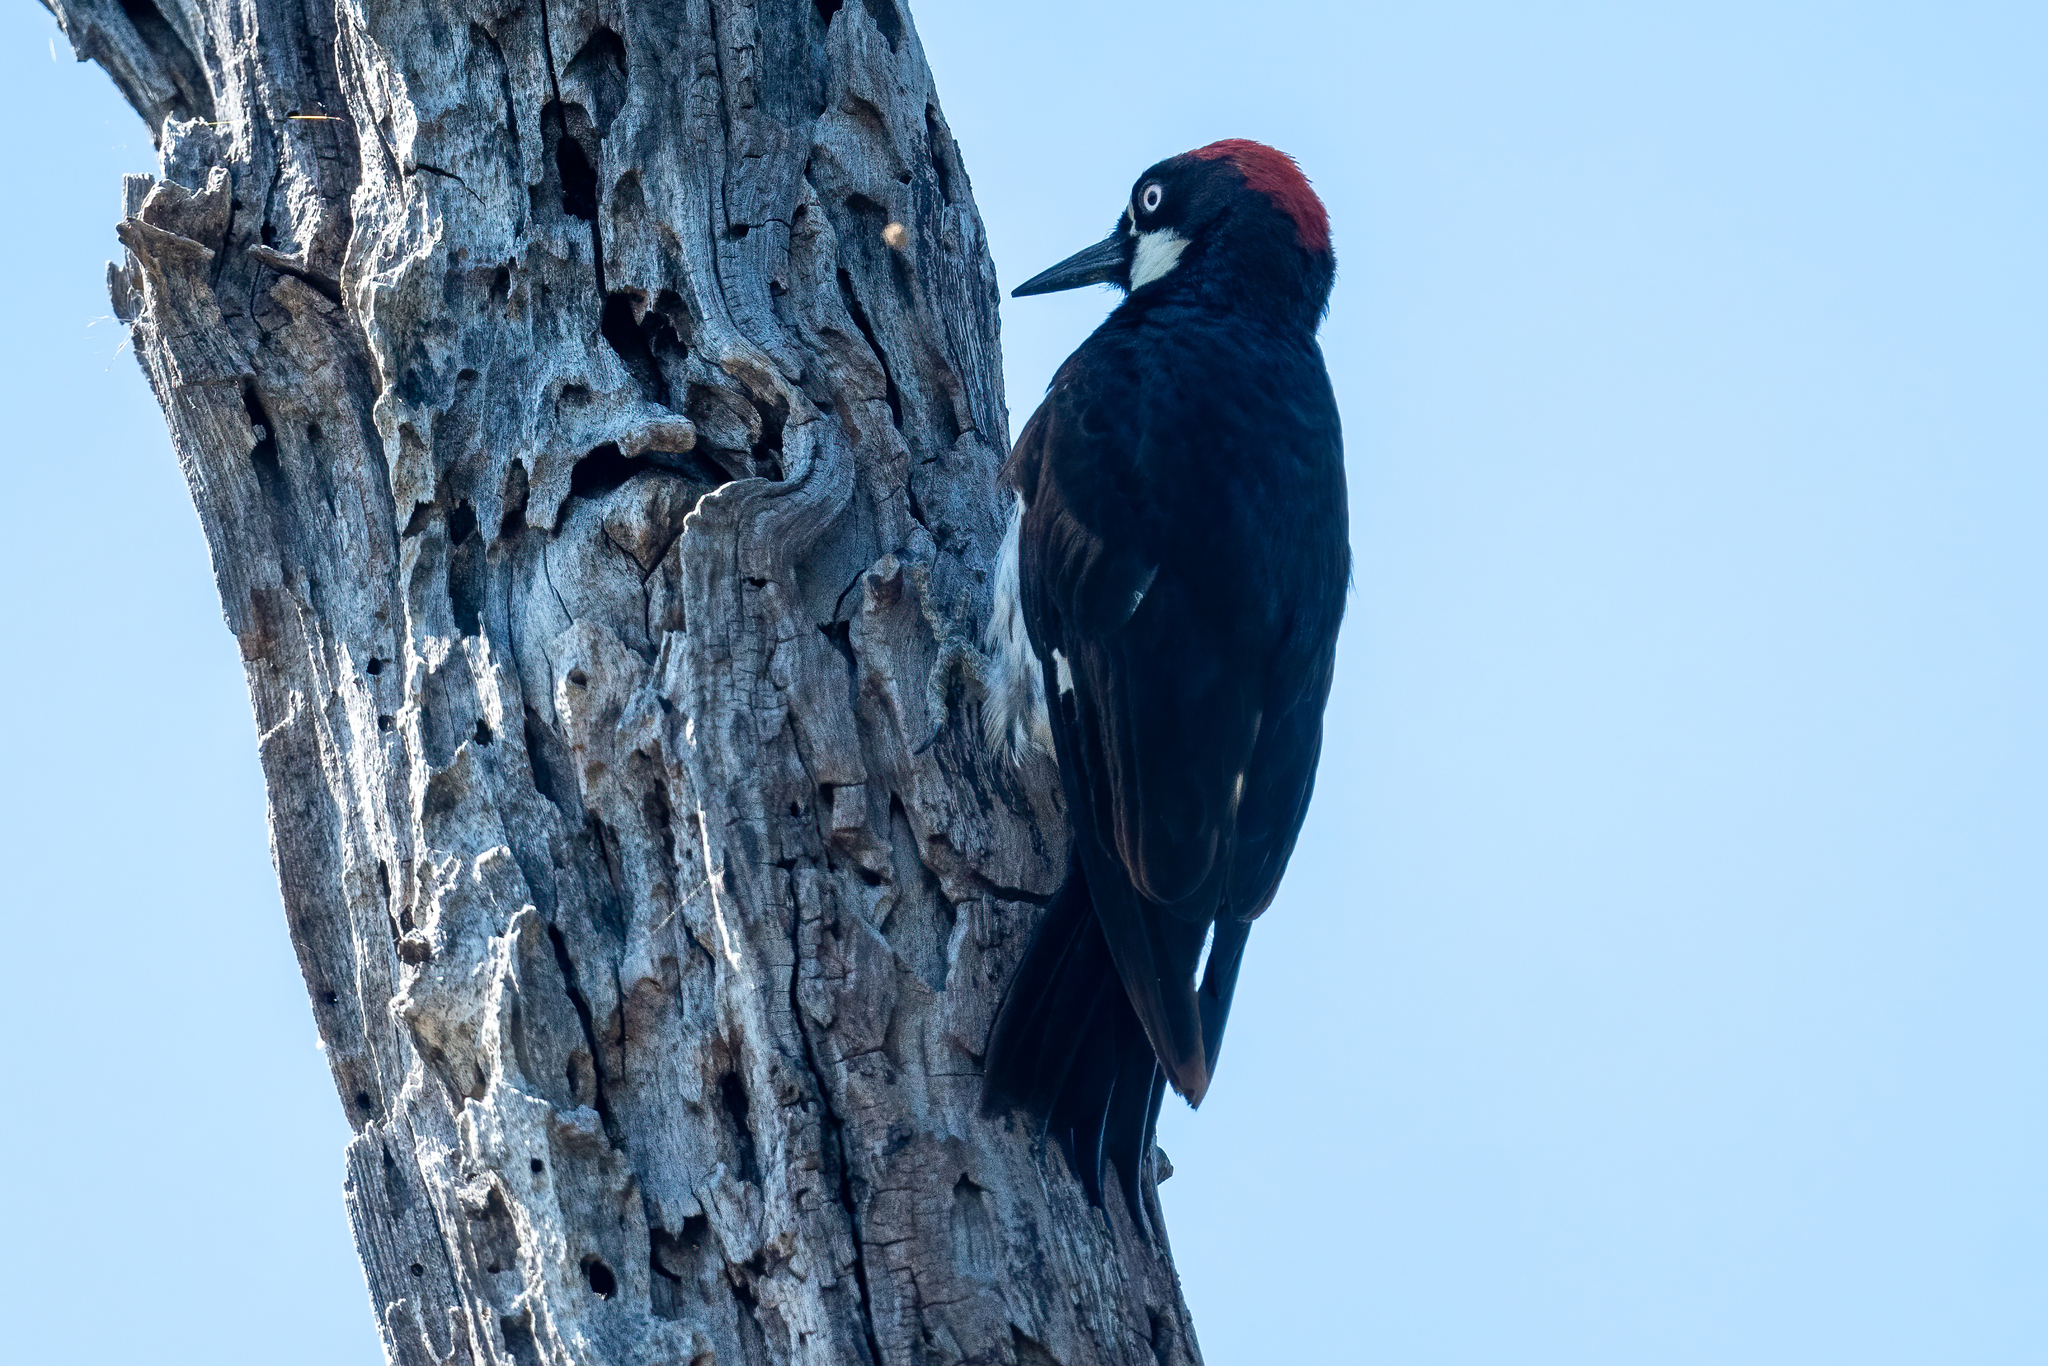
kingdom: Animalia
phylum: Chordata
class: Aves
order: Piciformes
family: Picidae
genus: Melanerpes
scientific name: Melanerpes formicivorus
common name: Acorn woodpecker
